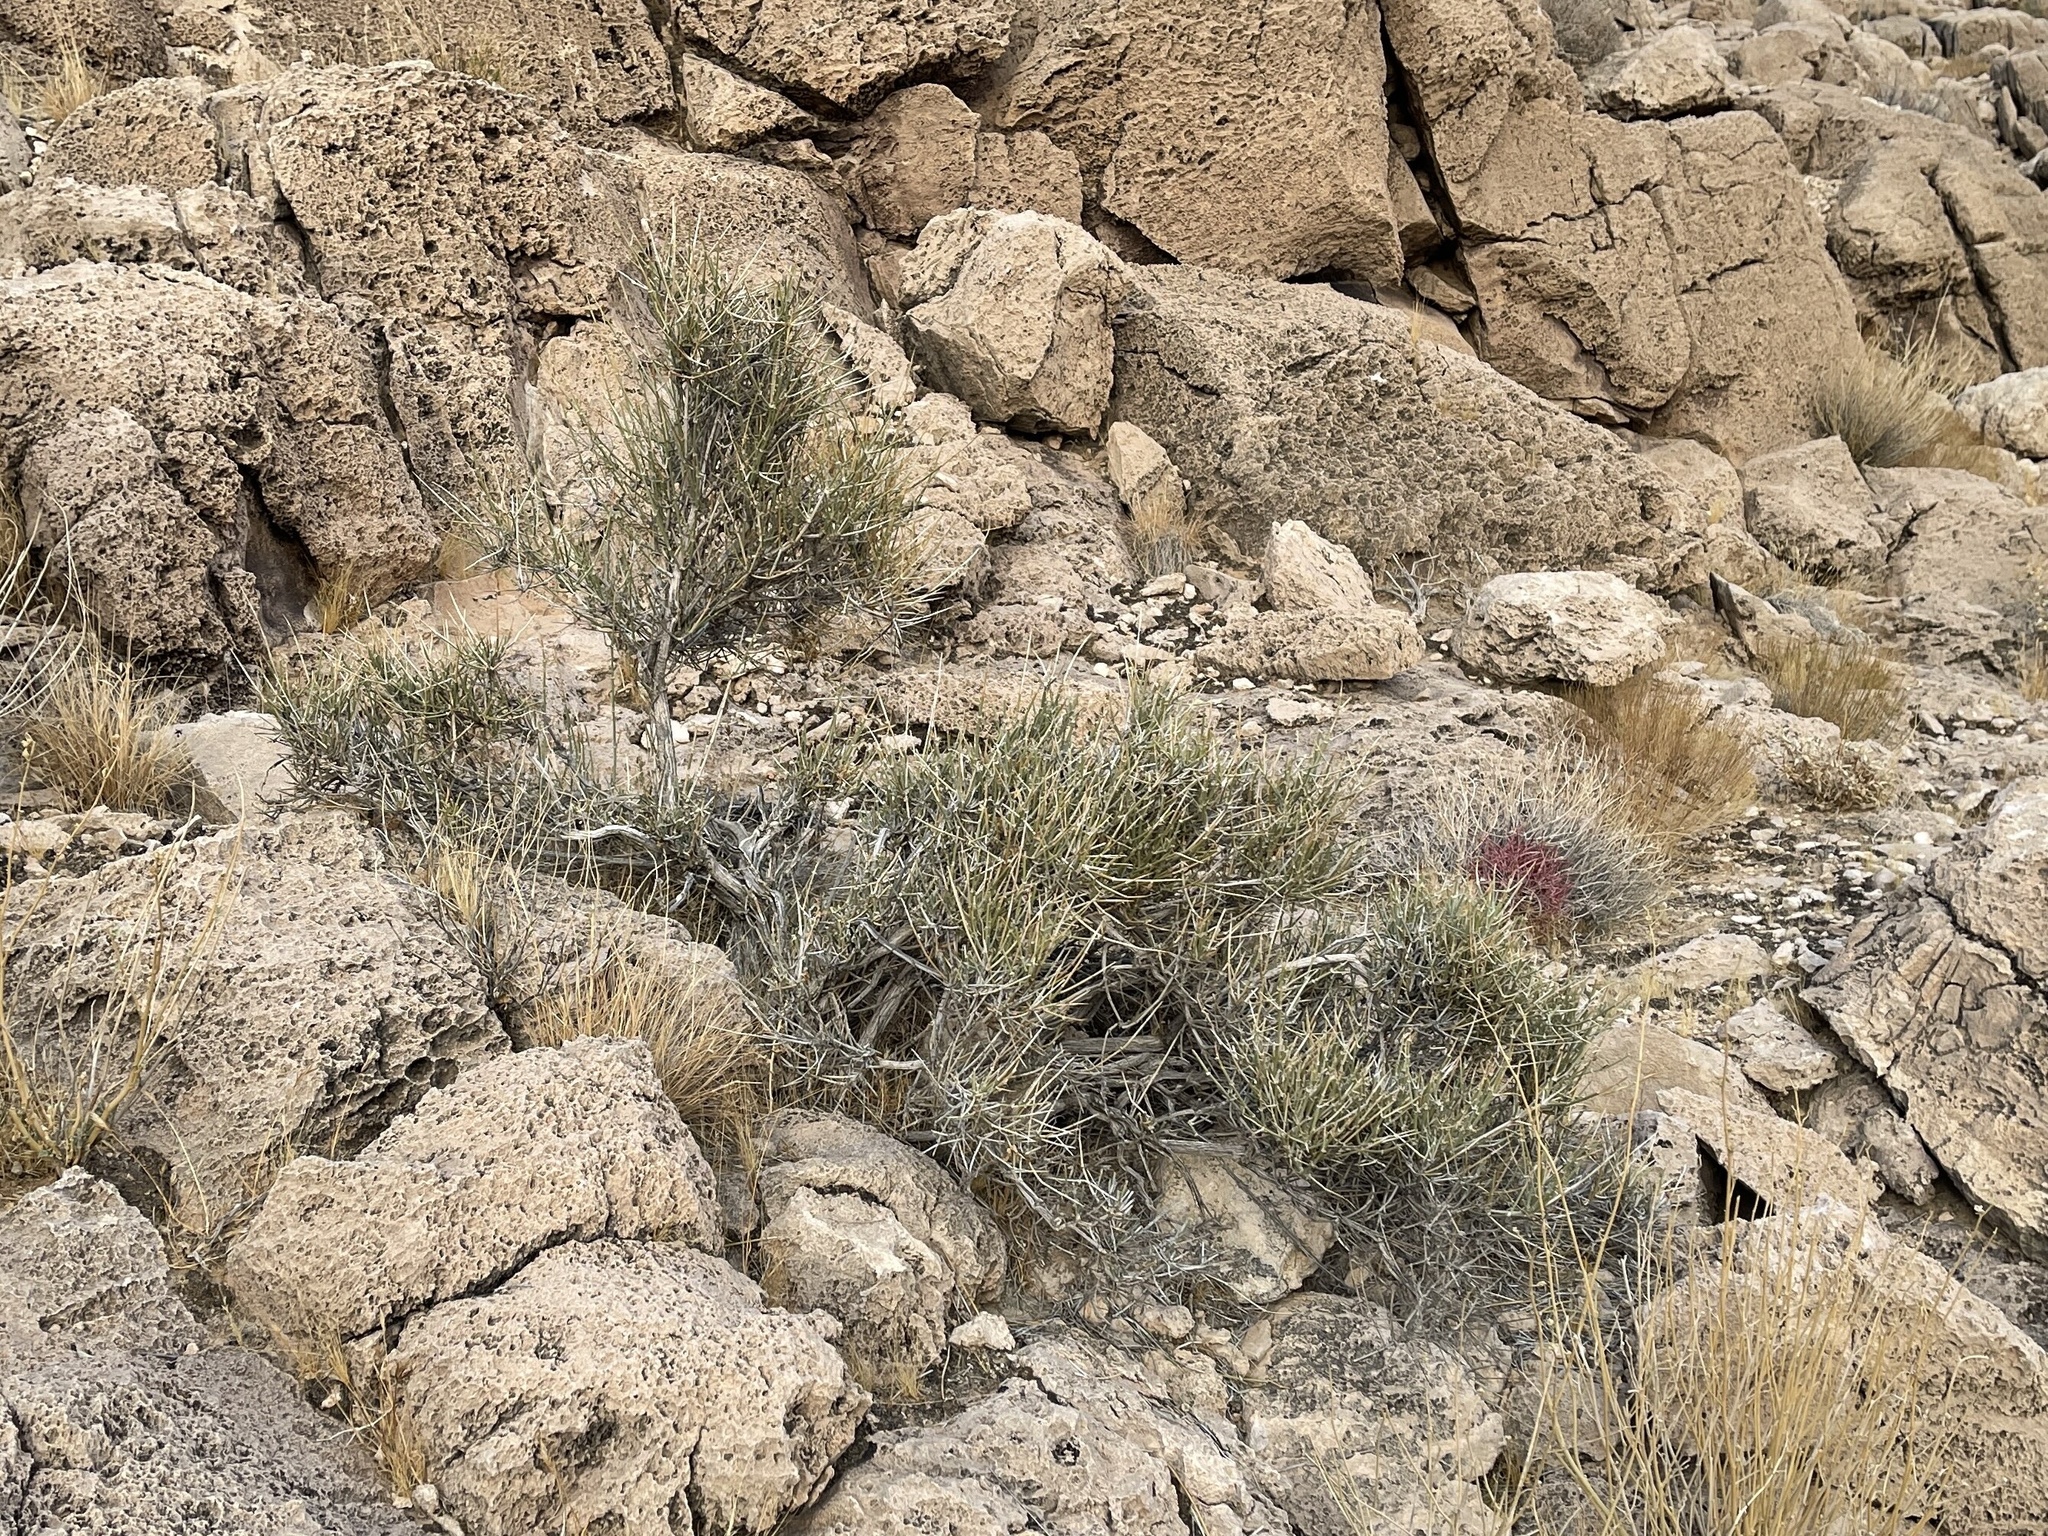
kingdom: Plantae
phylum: Tracheophyta
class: Gnetopsida
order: Ephedrales
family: Ephedraceae
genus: Ephedra
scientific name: Ephedra nevadensis
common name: Gray ephedra
